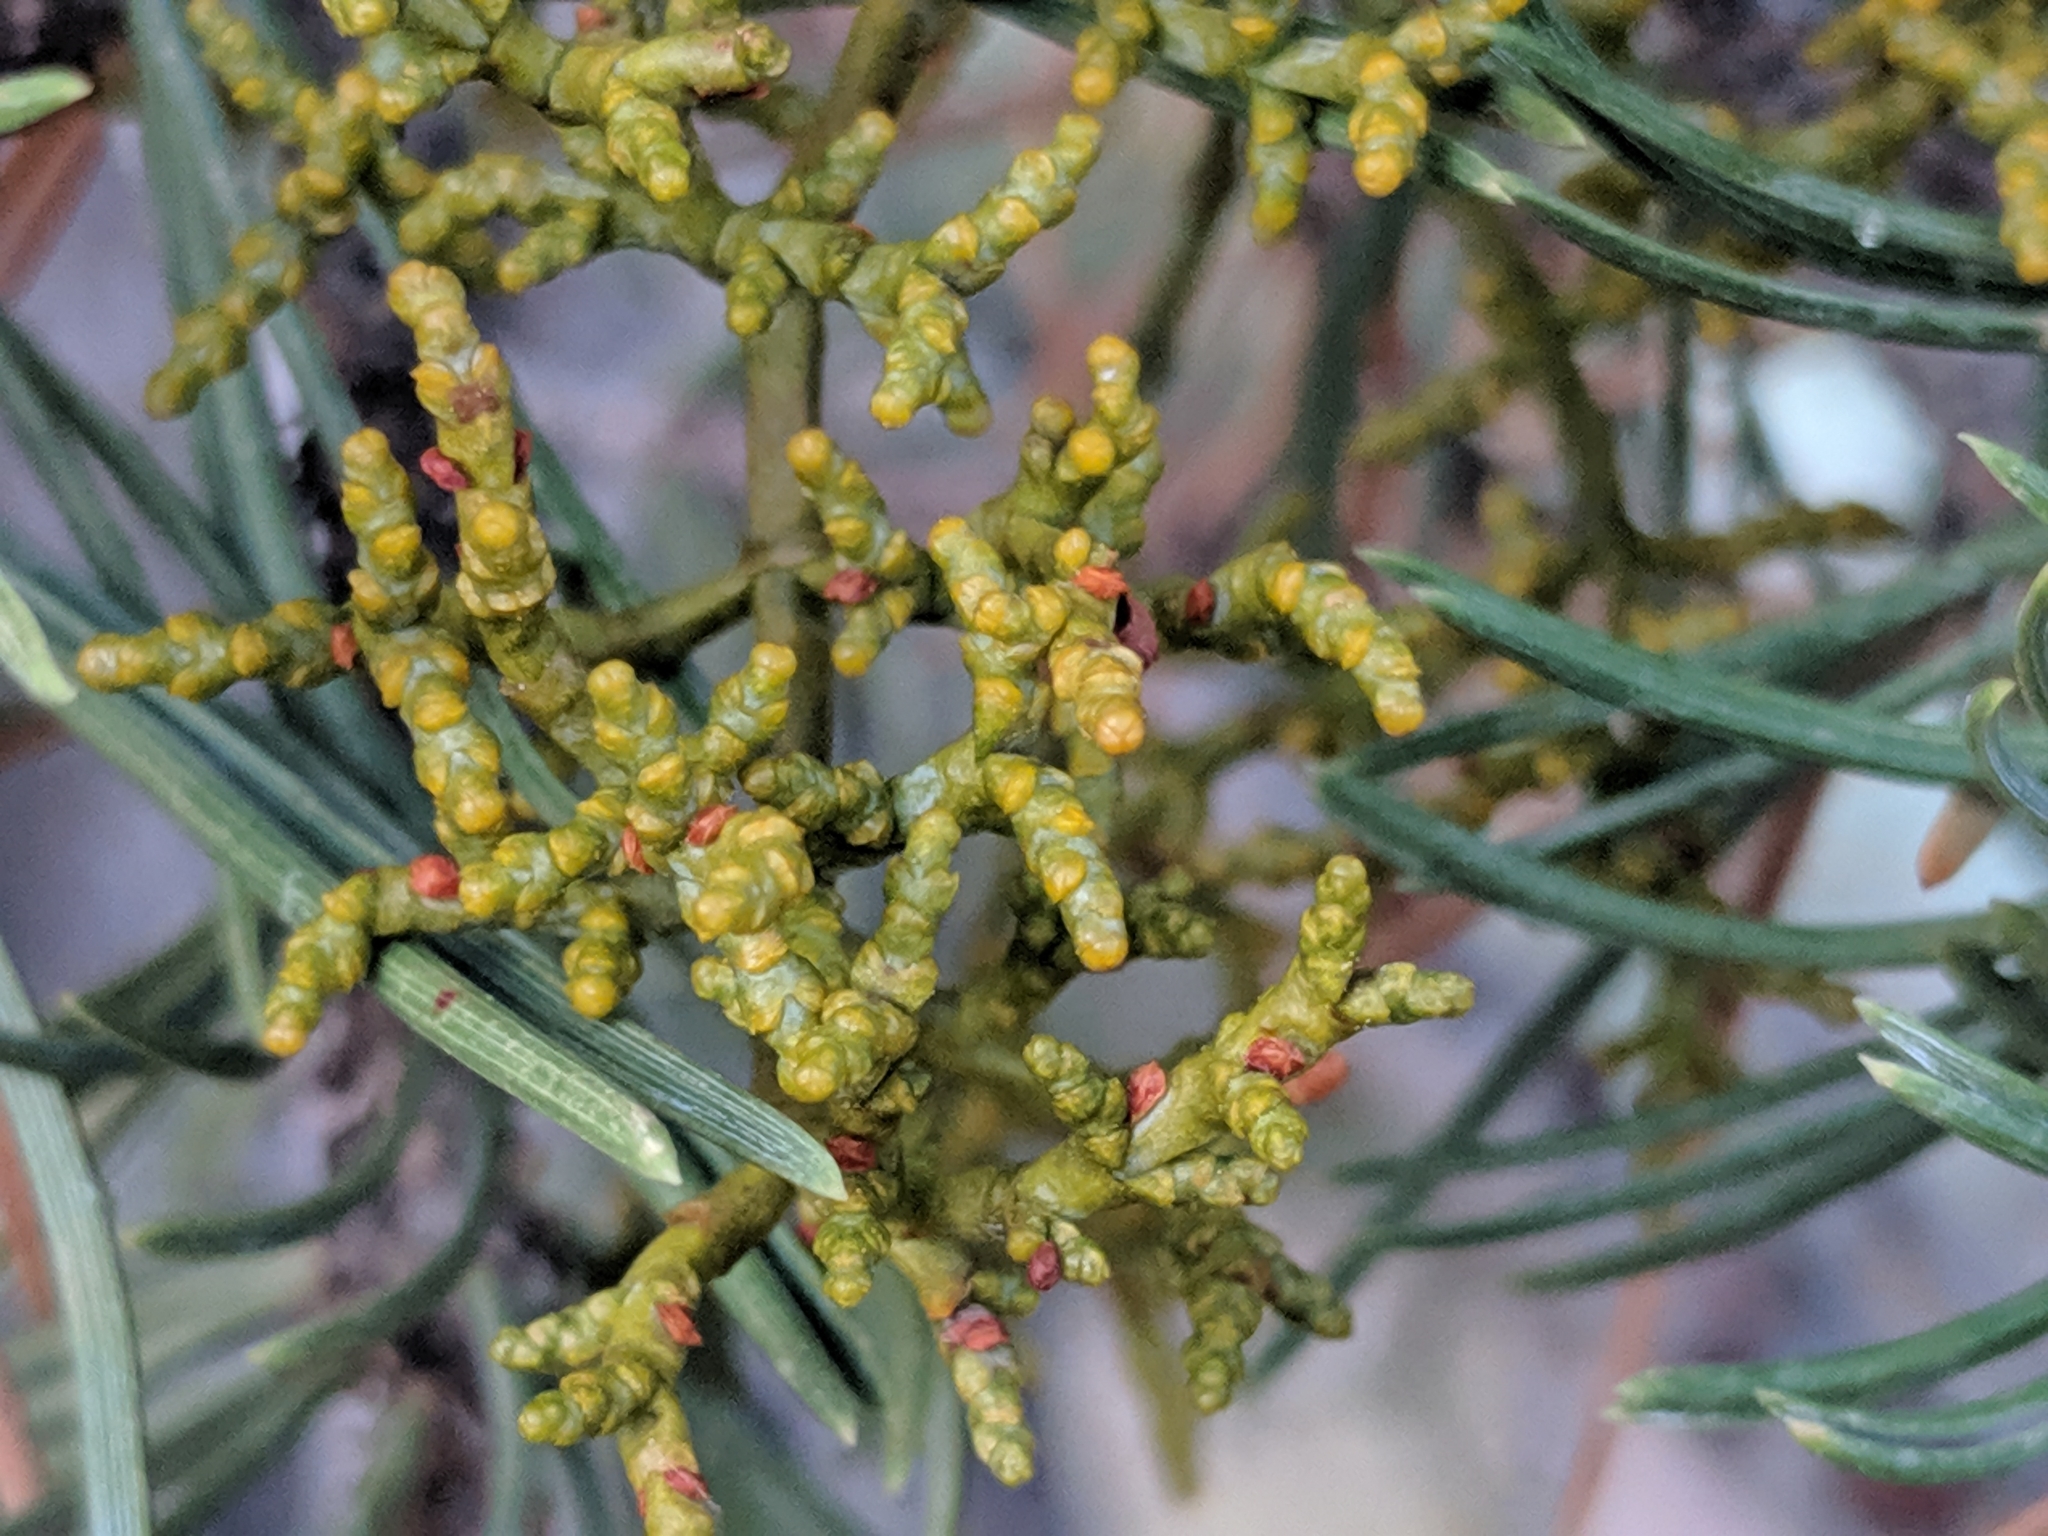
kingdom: Plantae
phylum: Tracheophyta
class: Magnoliopsida
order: Santalales
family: Viscaceae
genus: Arceuthobium
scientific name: Arceuthobium divaricatum
